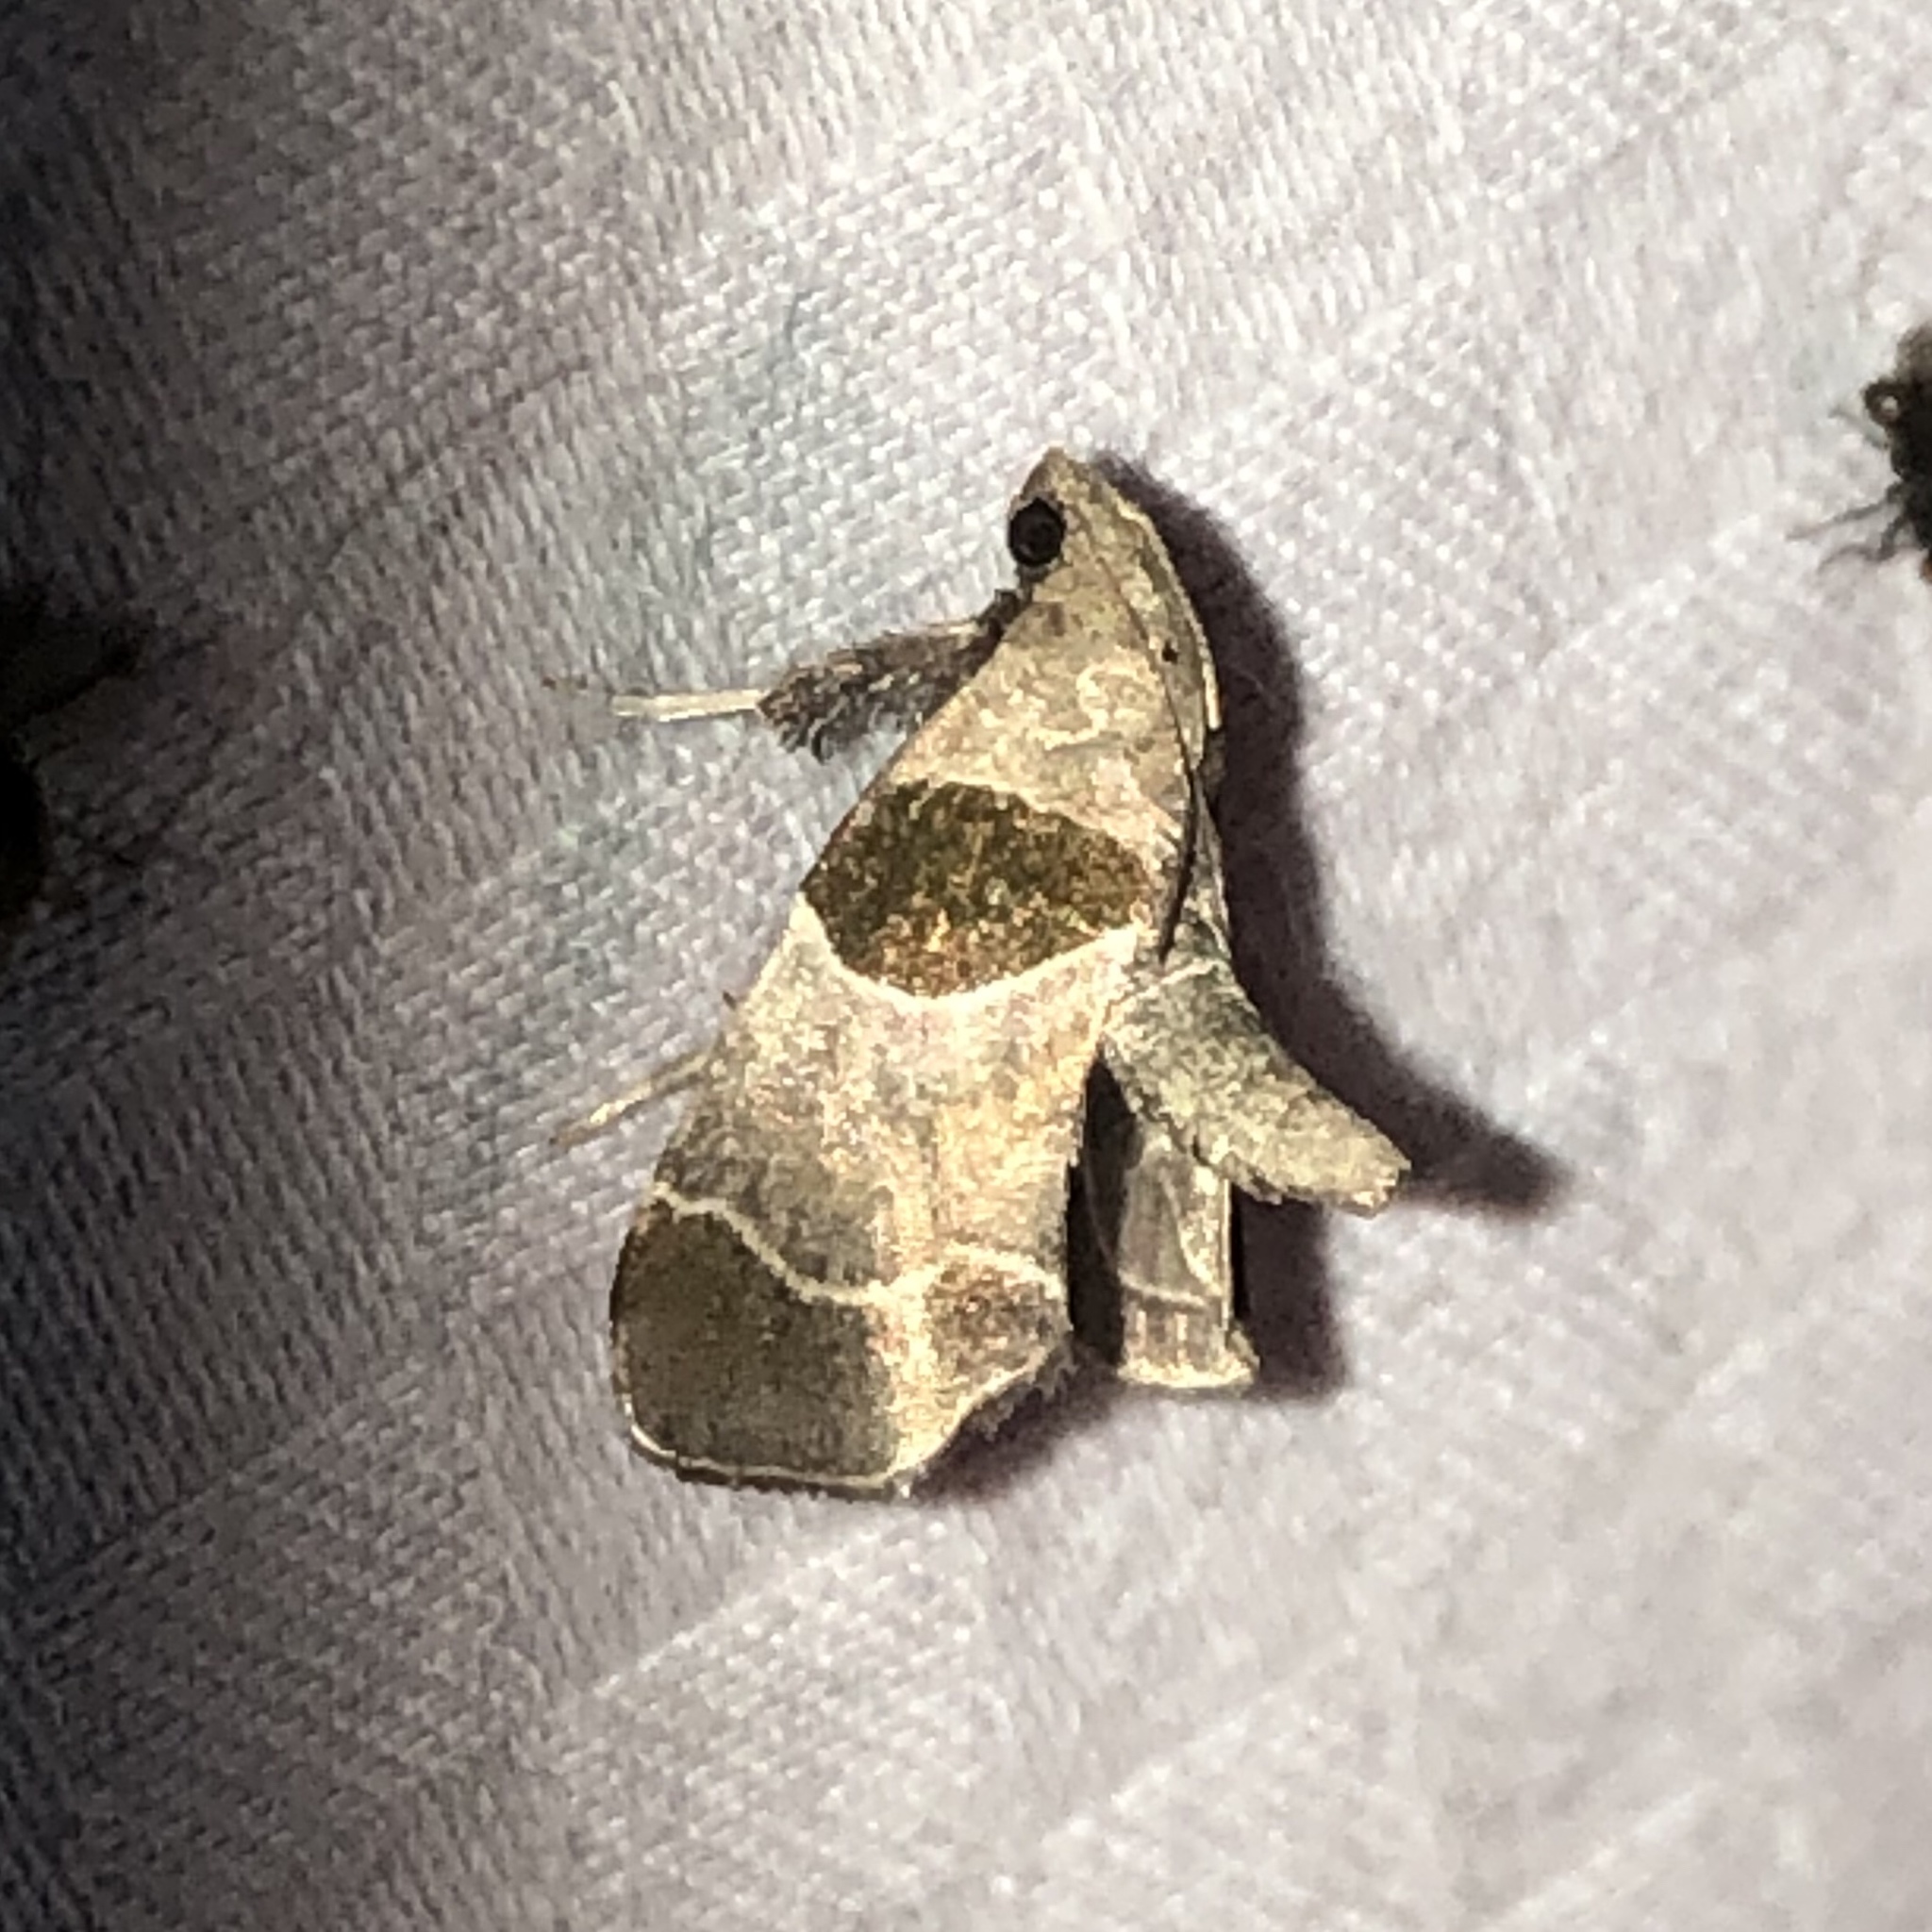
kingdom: Animalia
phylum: Arthropoda
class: Insecta
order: Lepidoptera
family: Pyralidae
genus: Tosale
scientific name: Tosale oviplagalis
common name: Dimorphic tosale moth
